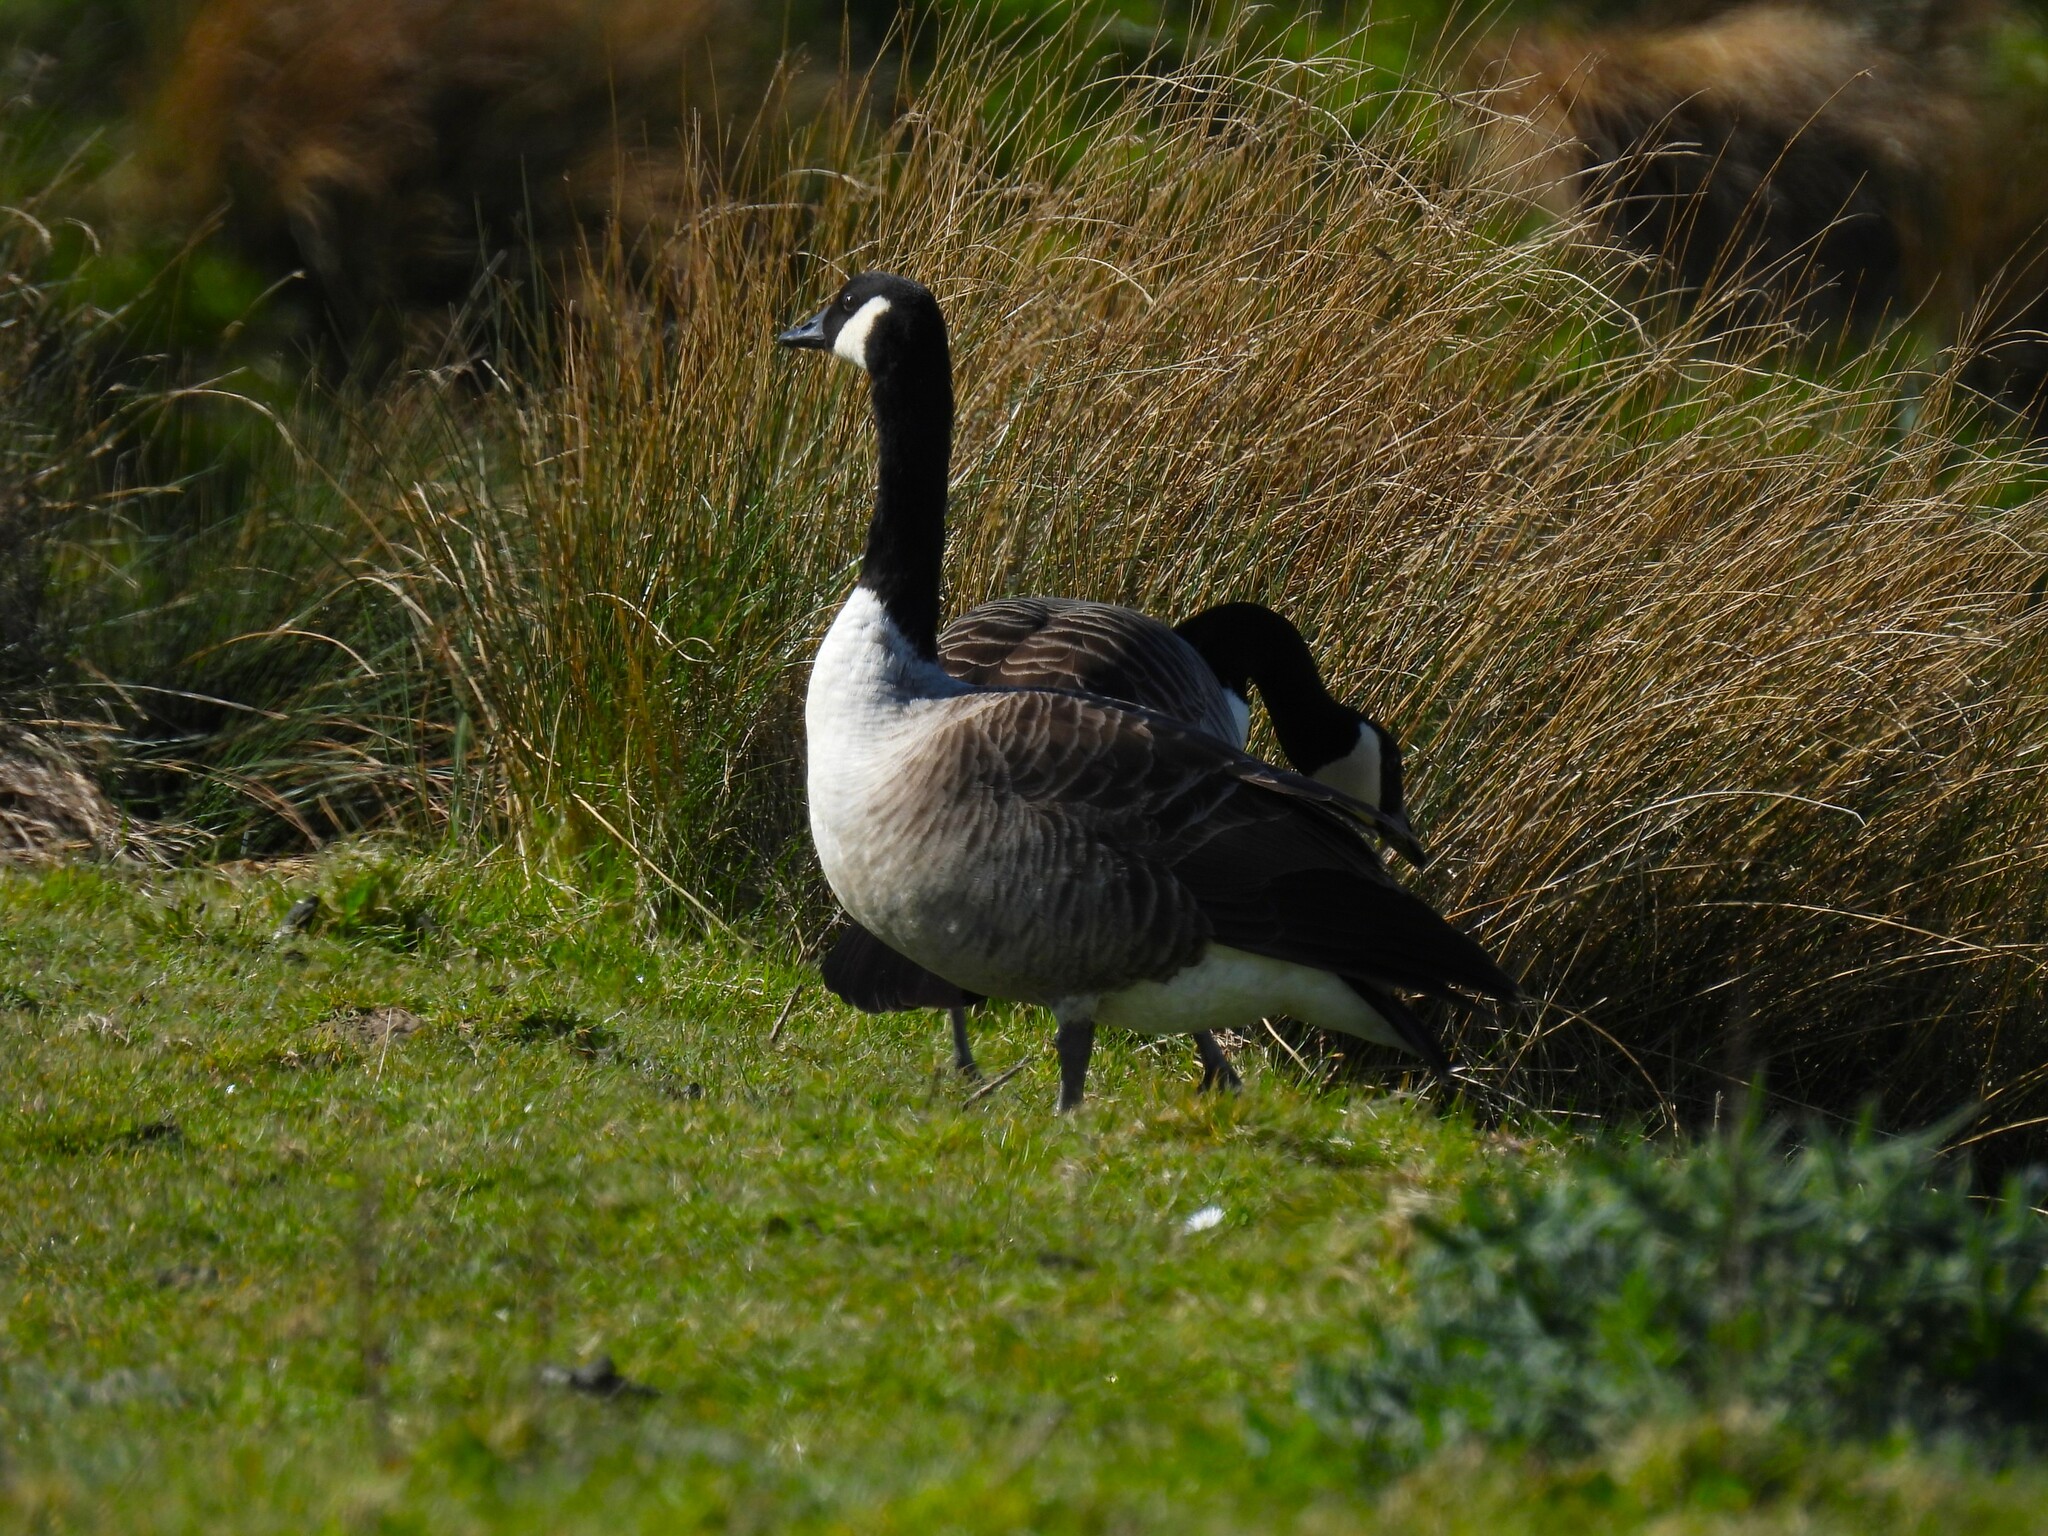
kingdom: Animalia
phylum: Chordata
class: Aves
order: Anseriformes
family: Anatidae
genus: Branta
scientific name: Branta canadensis
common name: Canada goose
